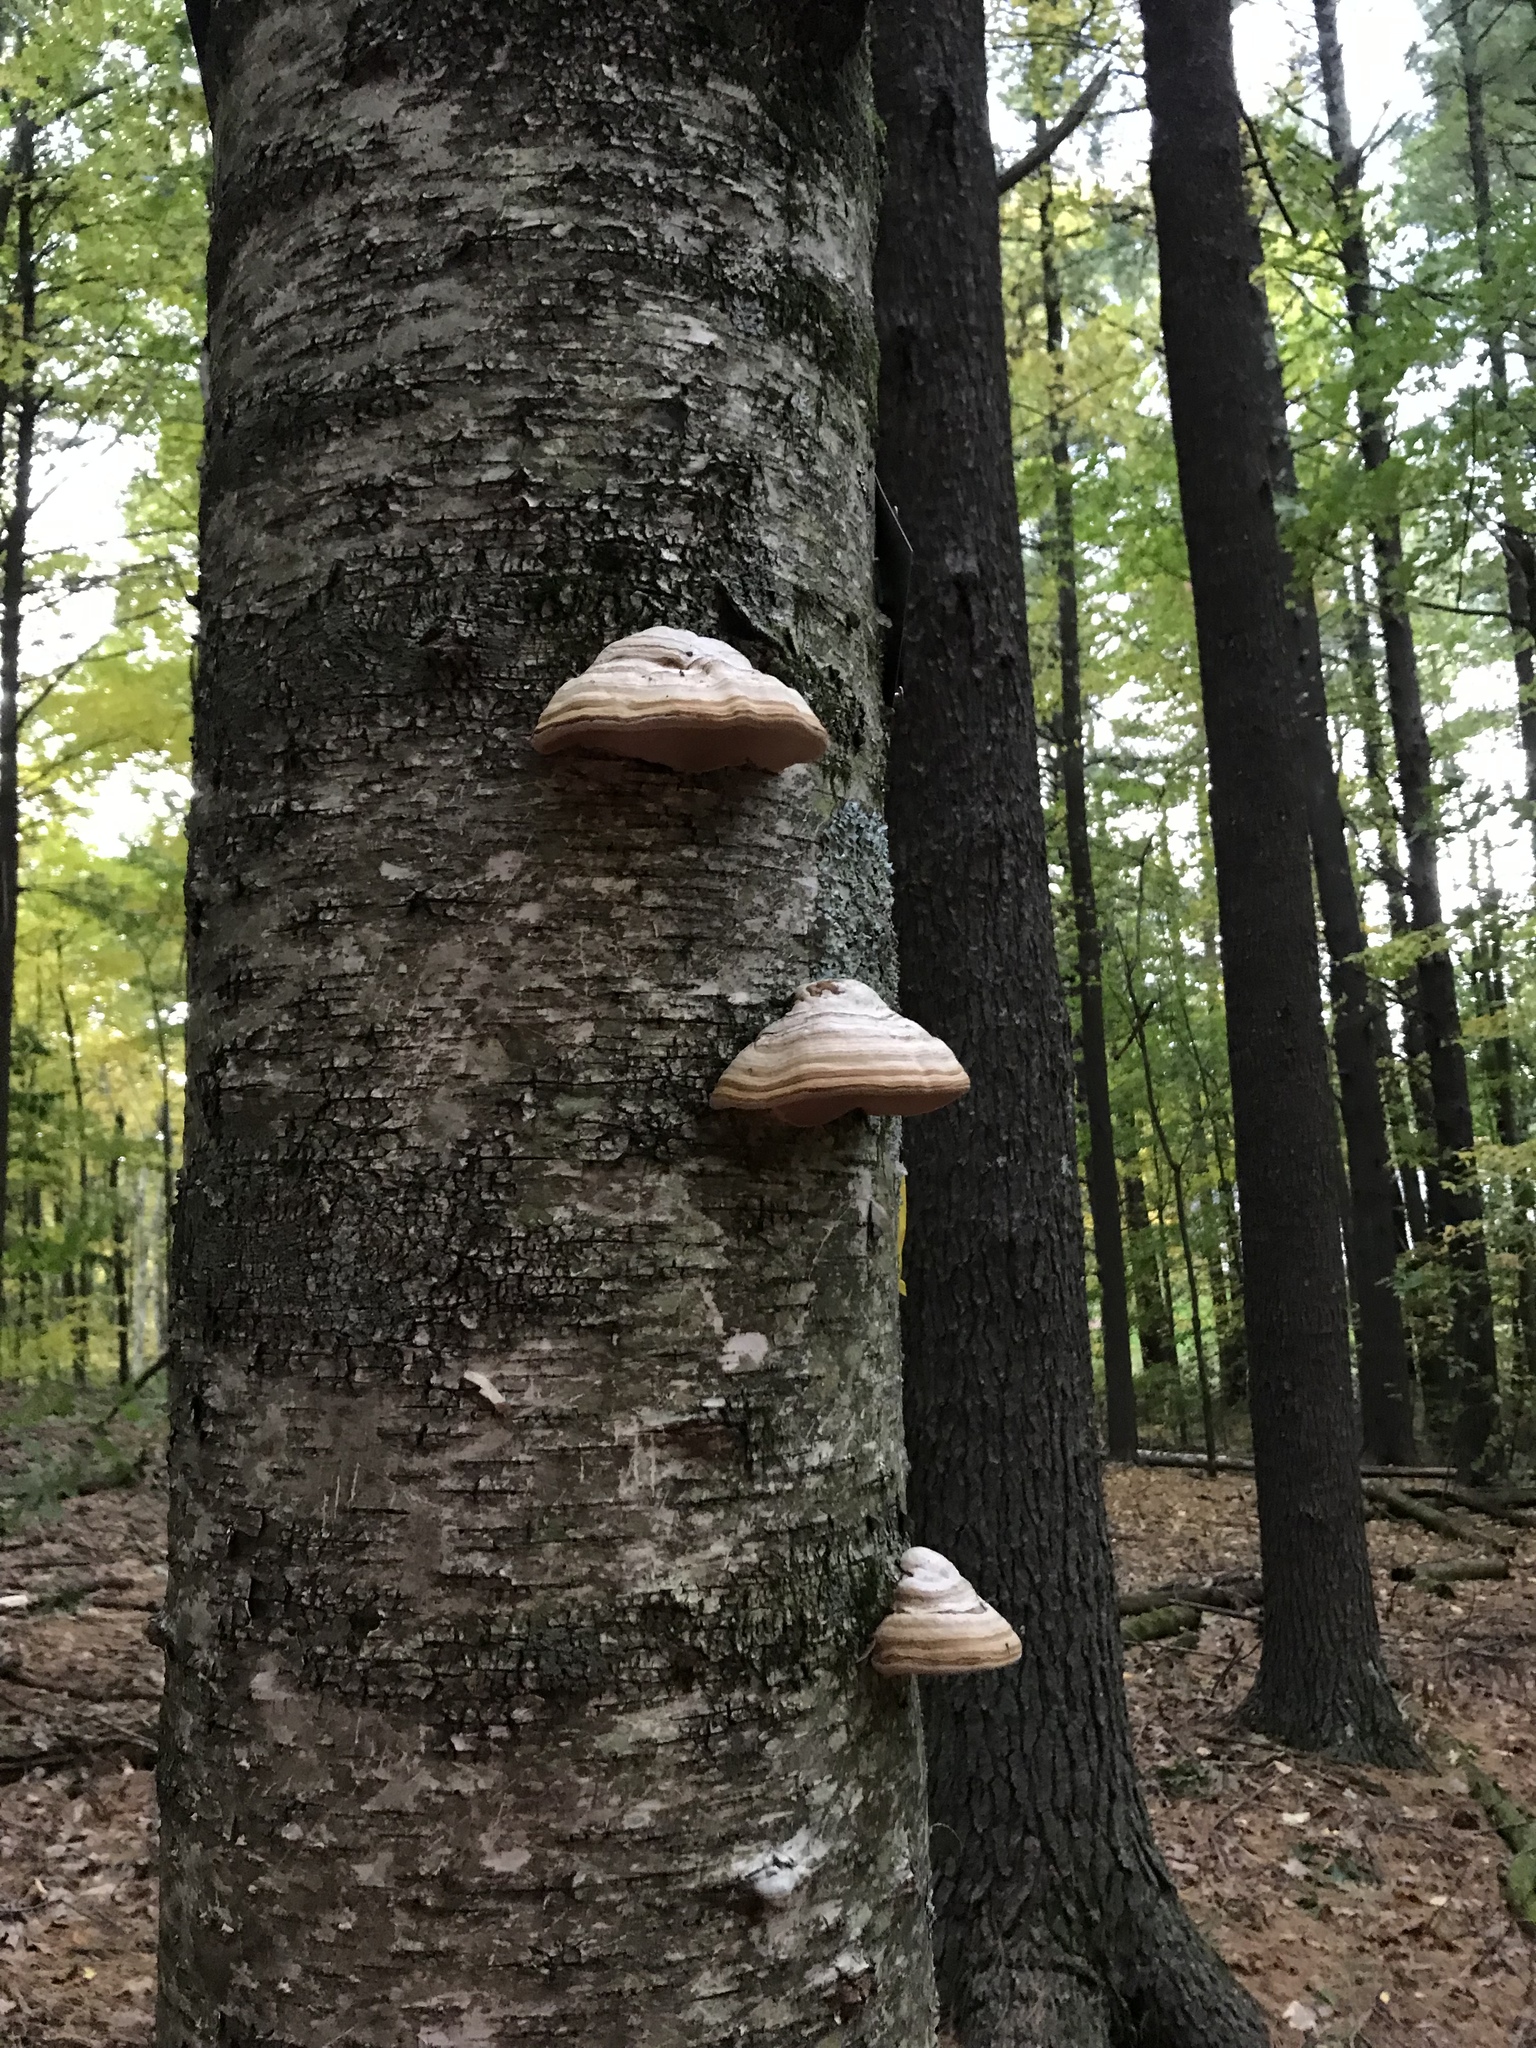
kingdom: Fungi
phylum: Basidiomycota
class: Agaricomycetes
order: Polyporales
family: Polyporaceae
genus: Fomes
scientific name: Fomes fomentarius
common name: Hoof fungus
